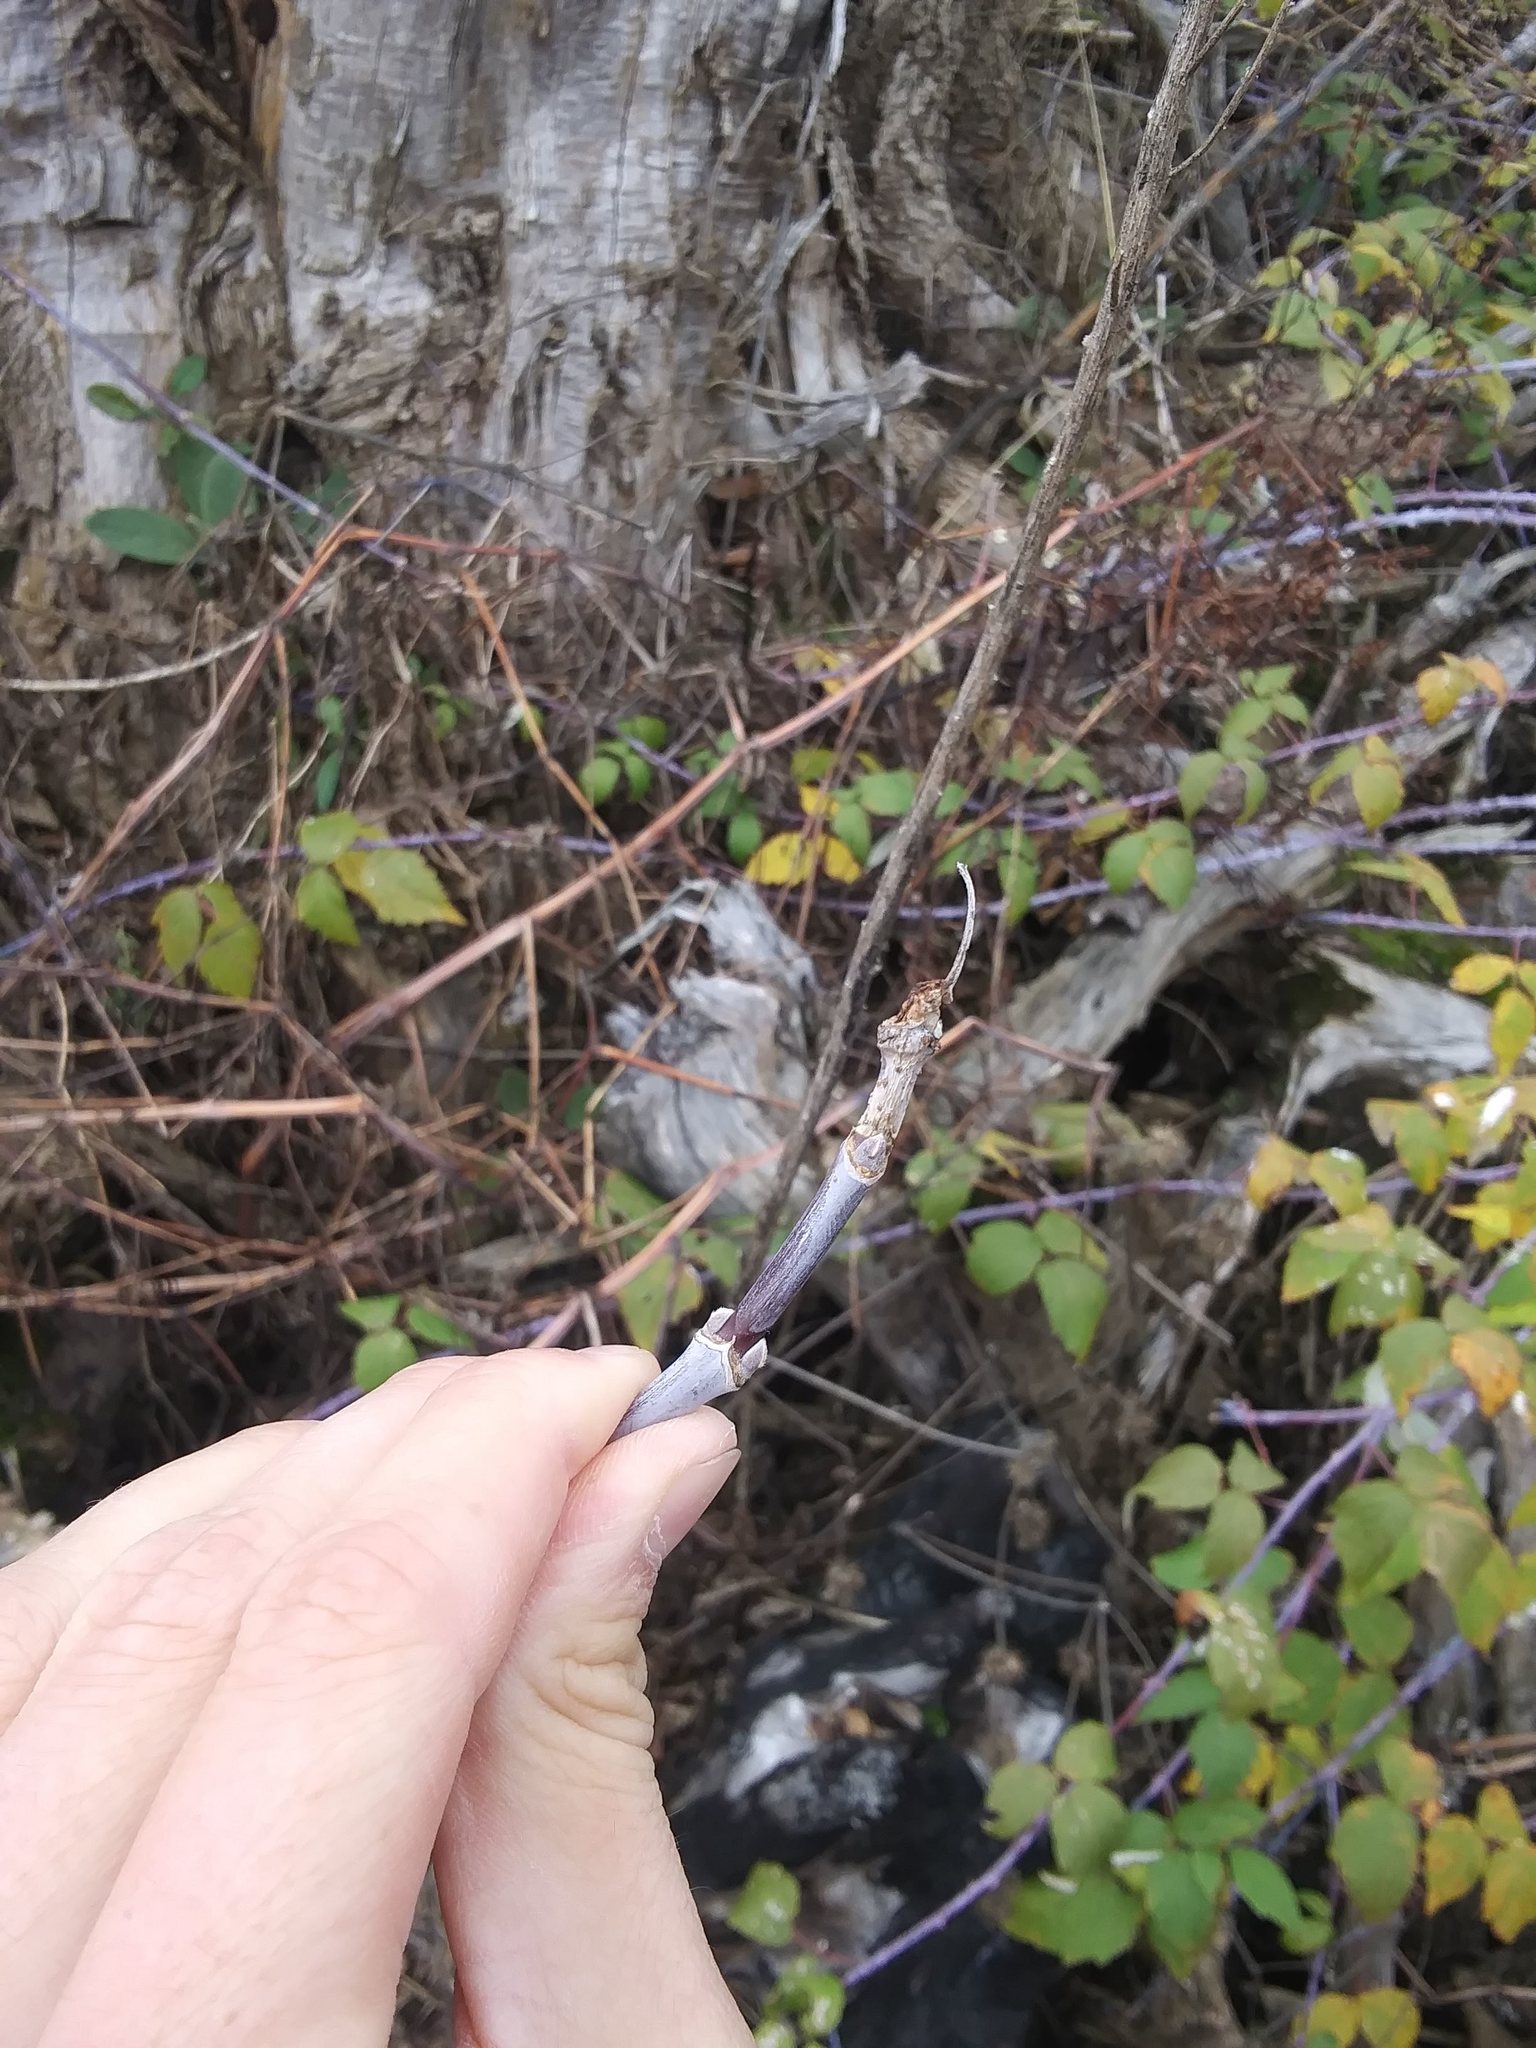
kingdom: Plantae
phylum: Tracheophyta
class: Magnoliopsida
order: Sapindales
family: Sapindaceae
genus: Acer
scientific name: Acer negundo
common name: Ashleaf maple
